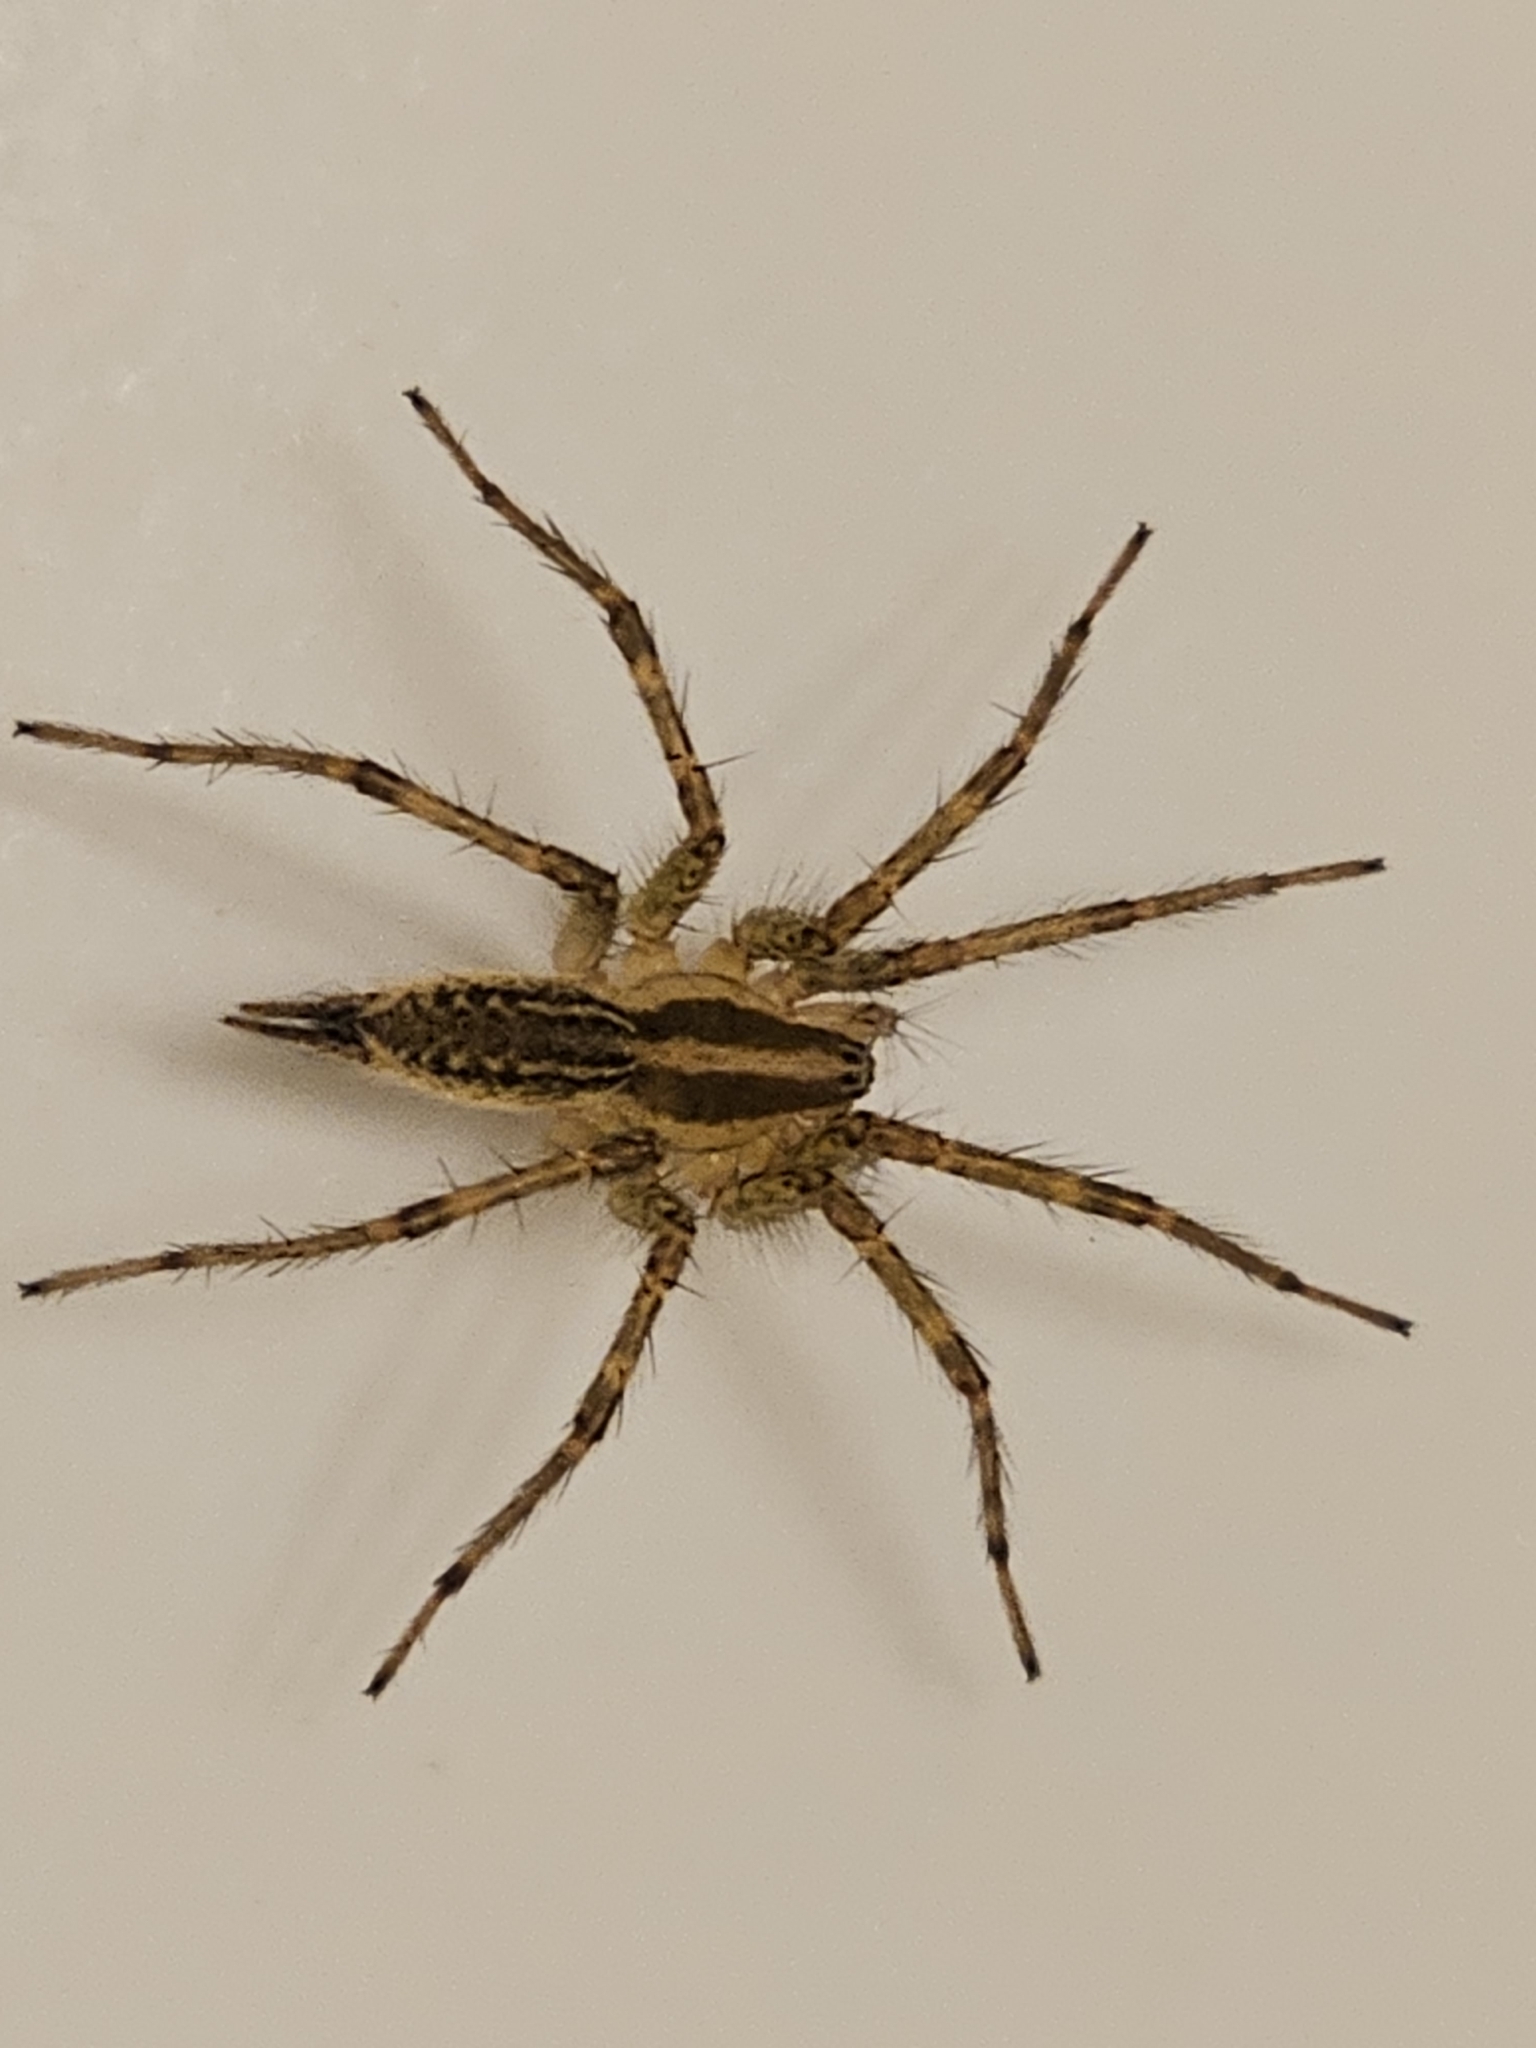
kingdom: Animalia
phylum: Arthropoda
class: Arachnida
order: Araneae
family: Agelenidae
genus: Agelenopsis
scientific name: Agelenopsis
